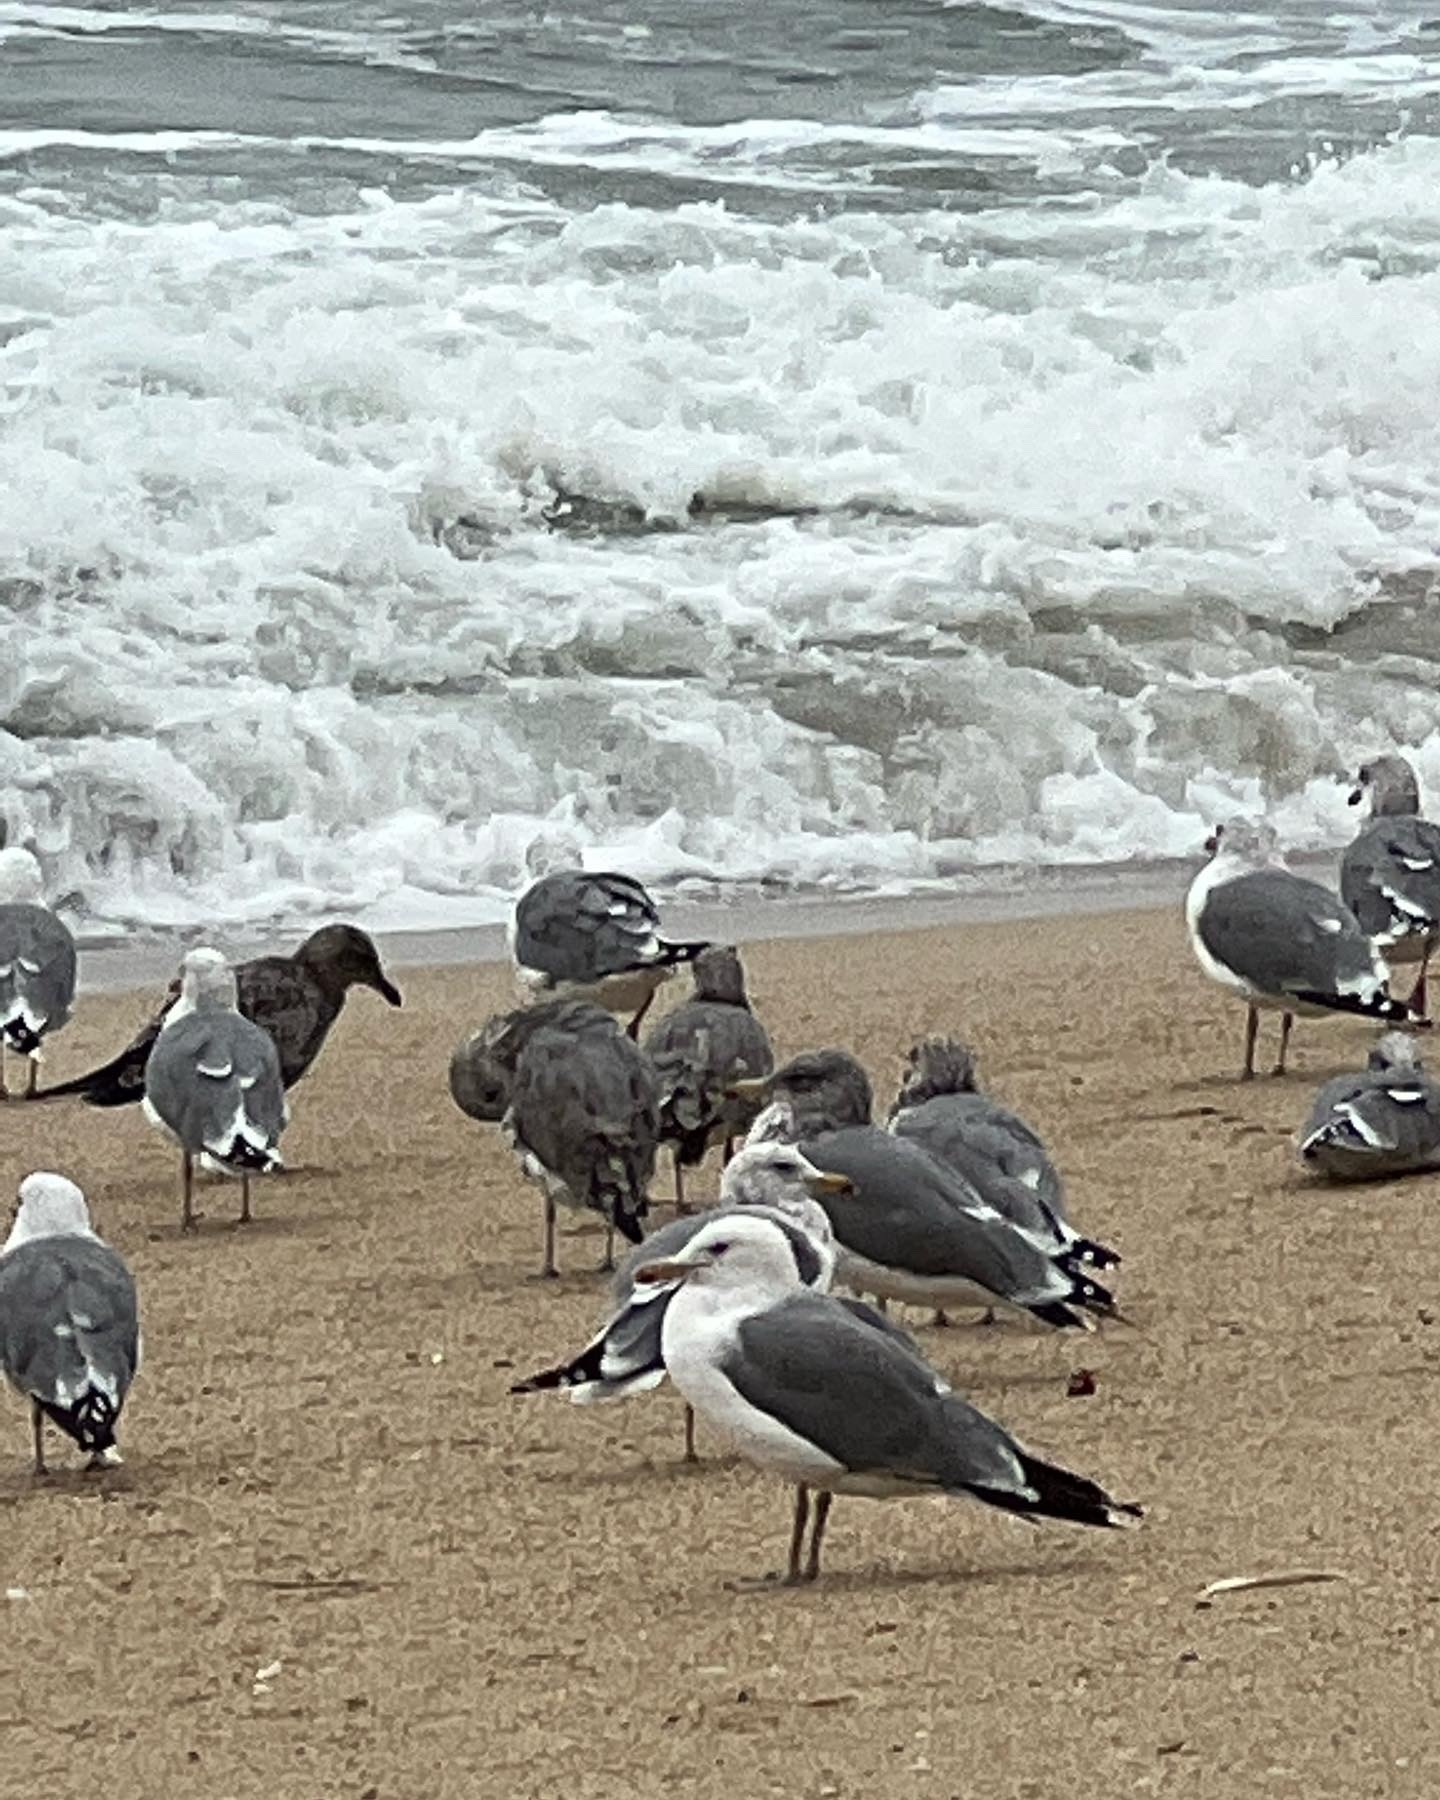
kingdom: Animalia
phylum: Chordata
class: Aves
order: Charadriiformes
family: Laridae
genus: Larus
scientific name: Larus occidentalis
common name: Western gull
